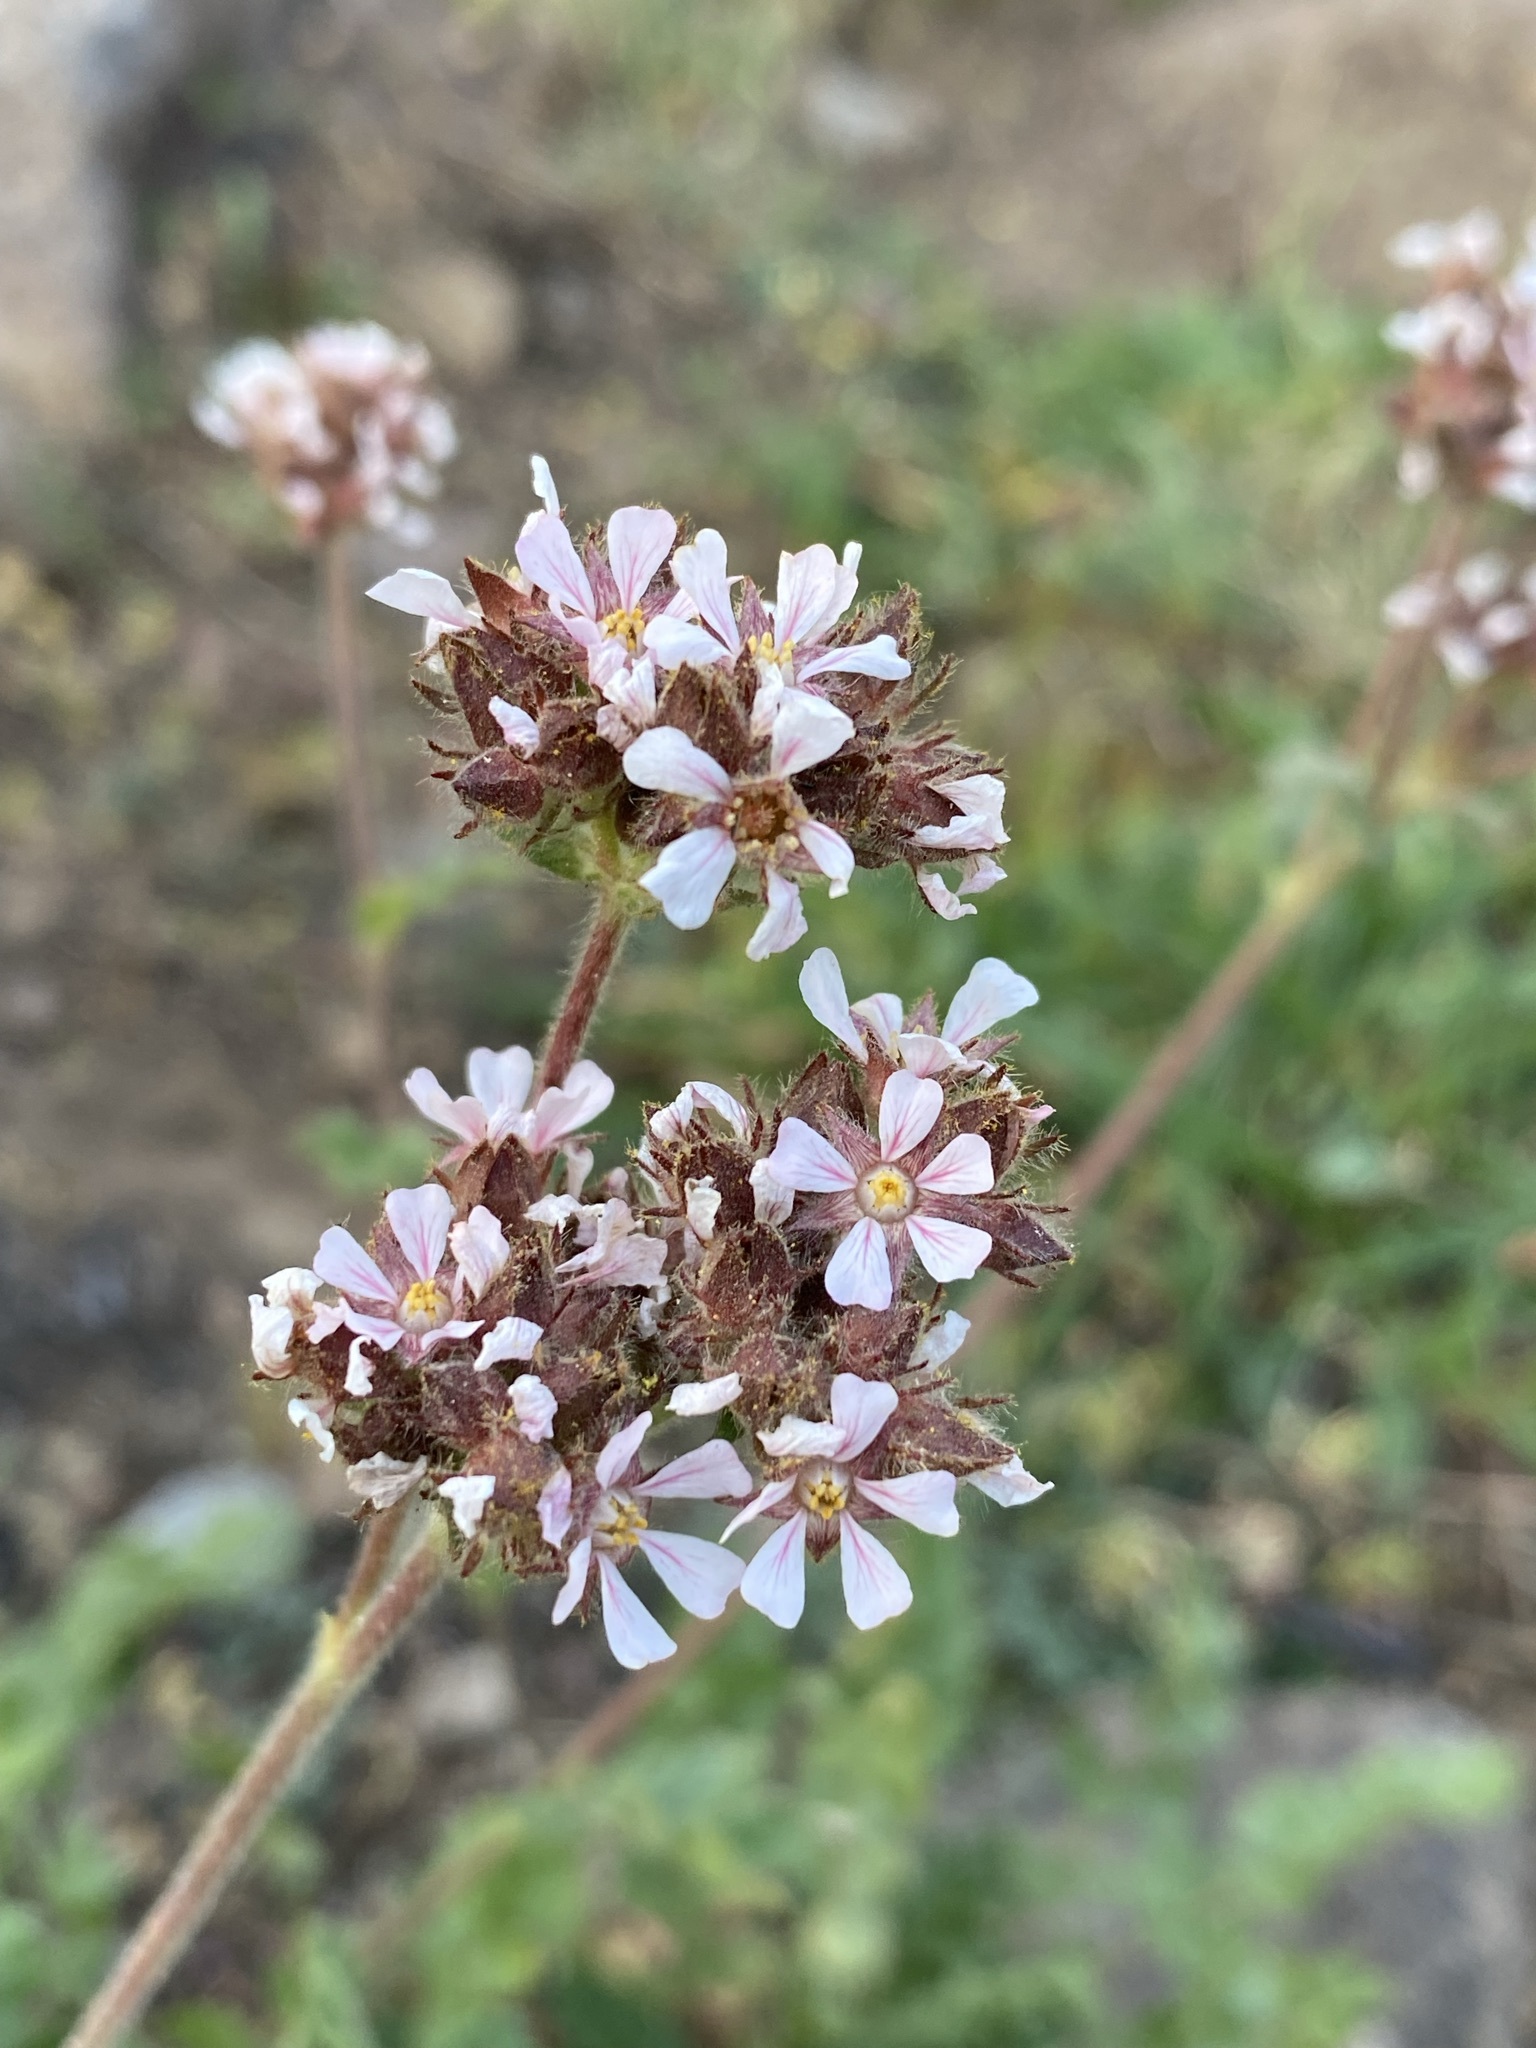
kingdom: Plantae
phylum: Tracheophyta
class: Magnoliopsida
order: Rosales
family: Rosaceae
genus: Potentilla
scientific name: Potentilla douglasii
